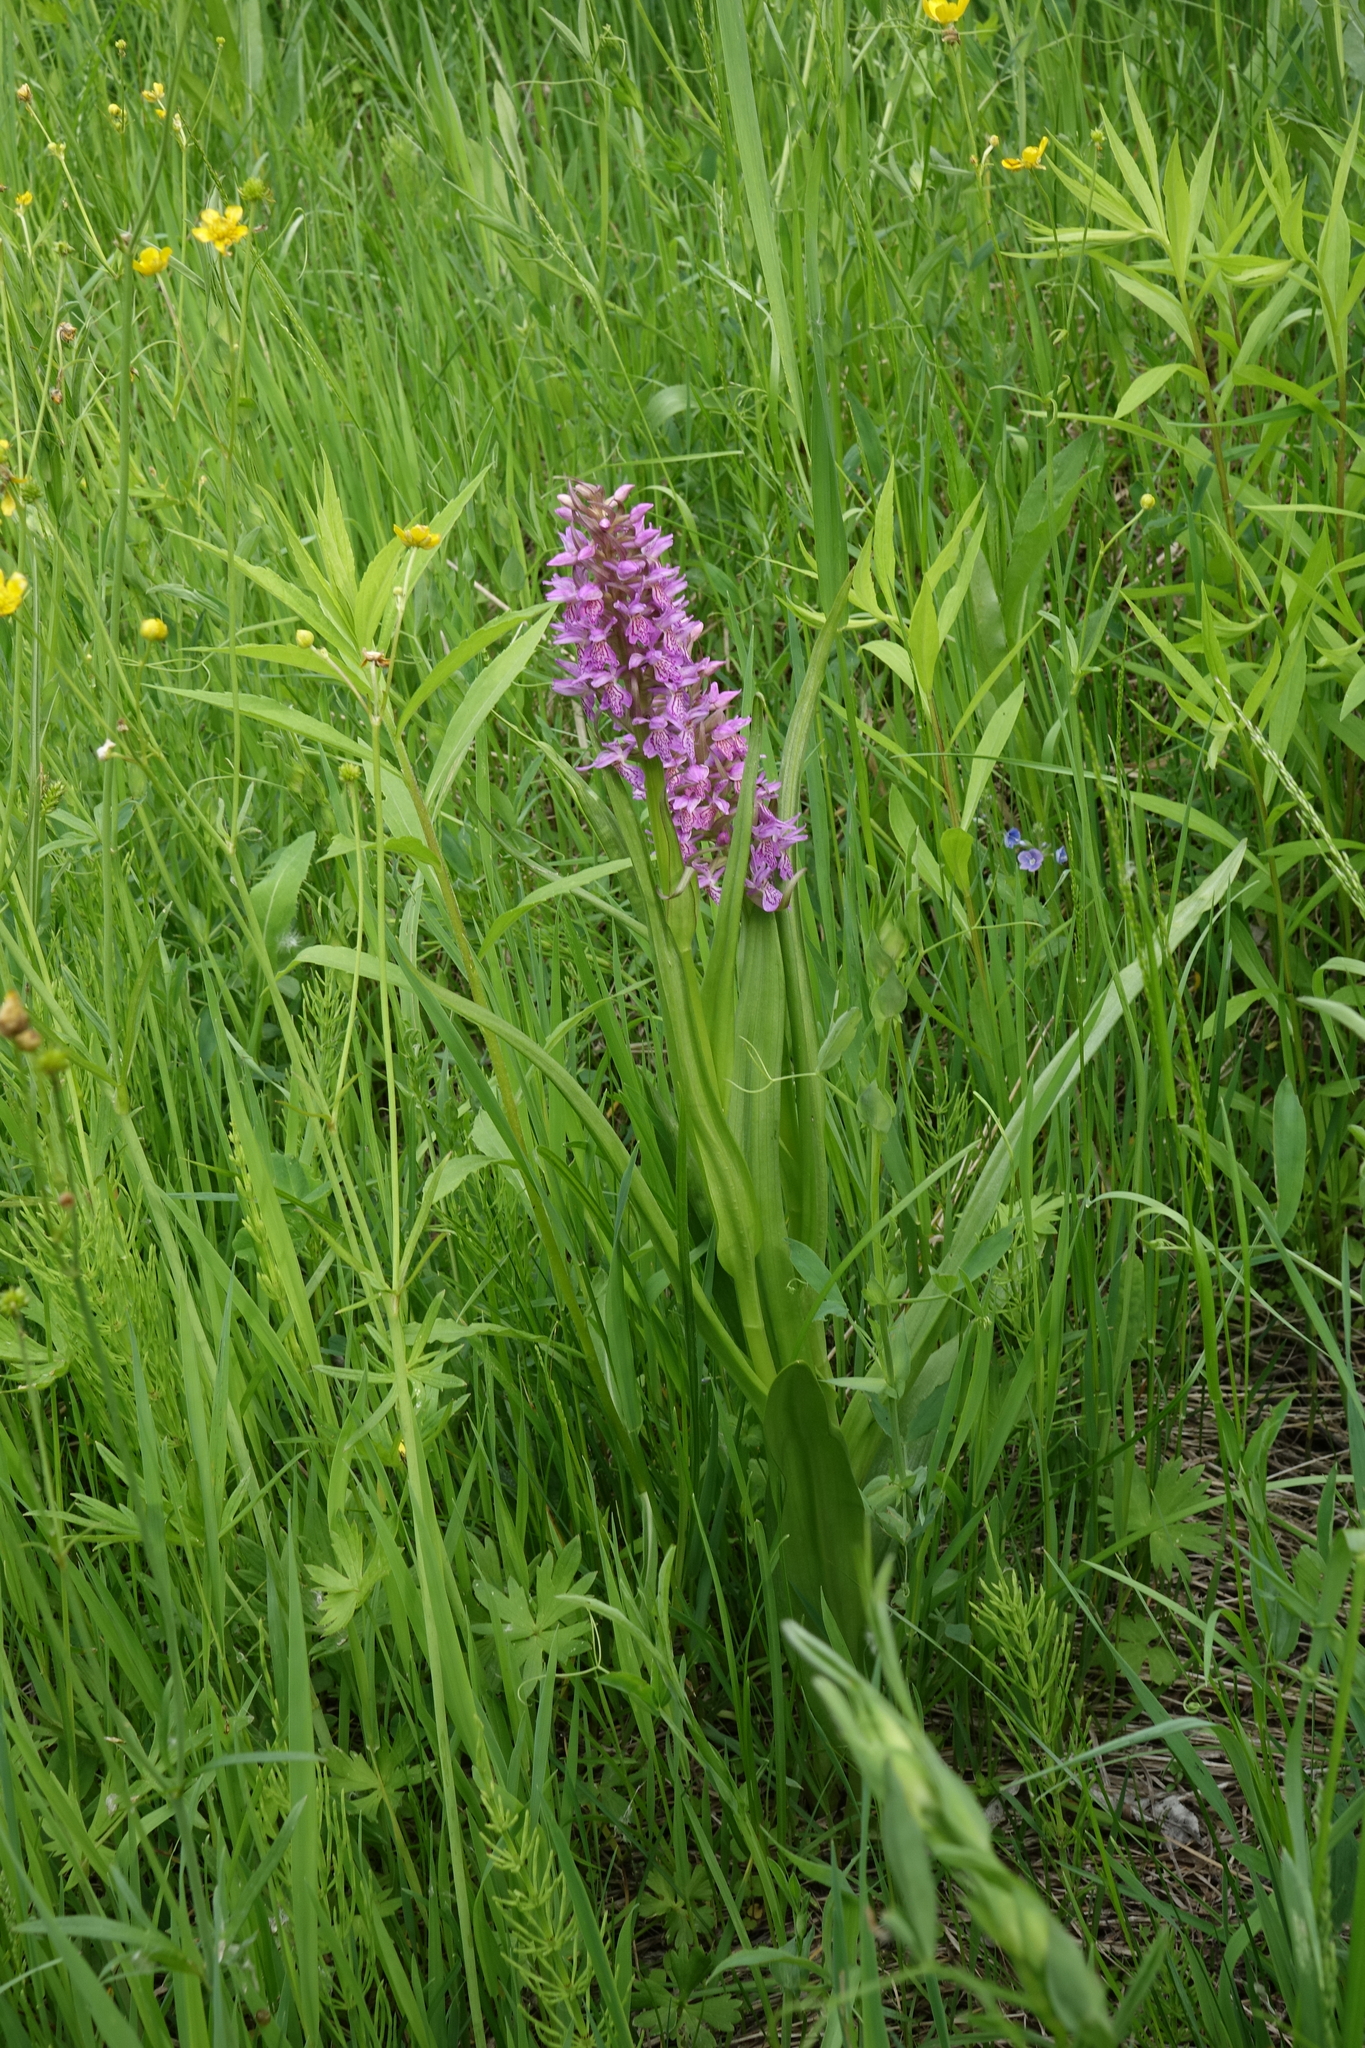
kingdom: Plantae
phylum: Tracheophyta
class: Liliopsida
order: Asparagales
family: Orchidaceae
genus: Dactylorhiza
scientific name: Dactylorhiza incarnata
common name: Early marsh-orchid
